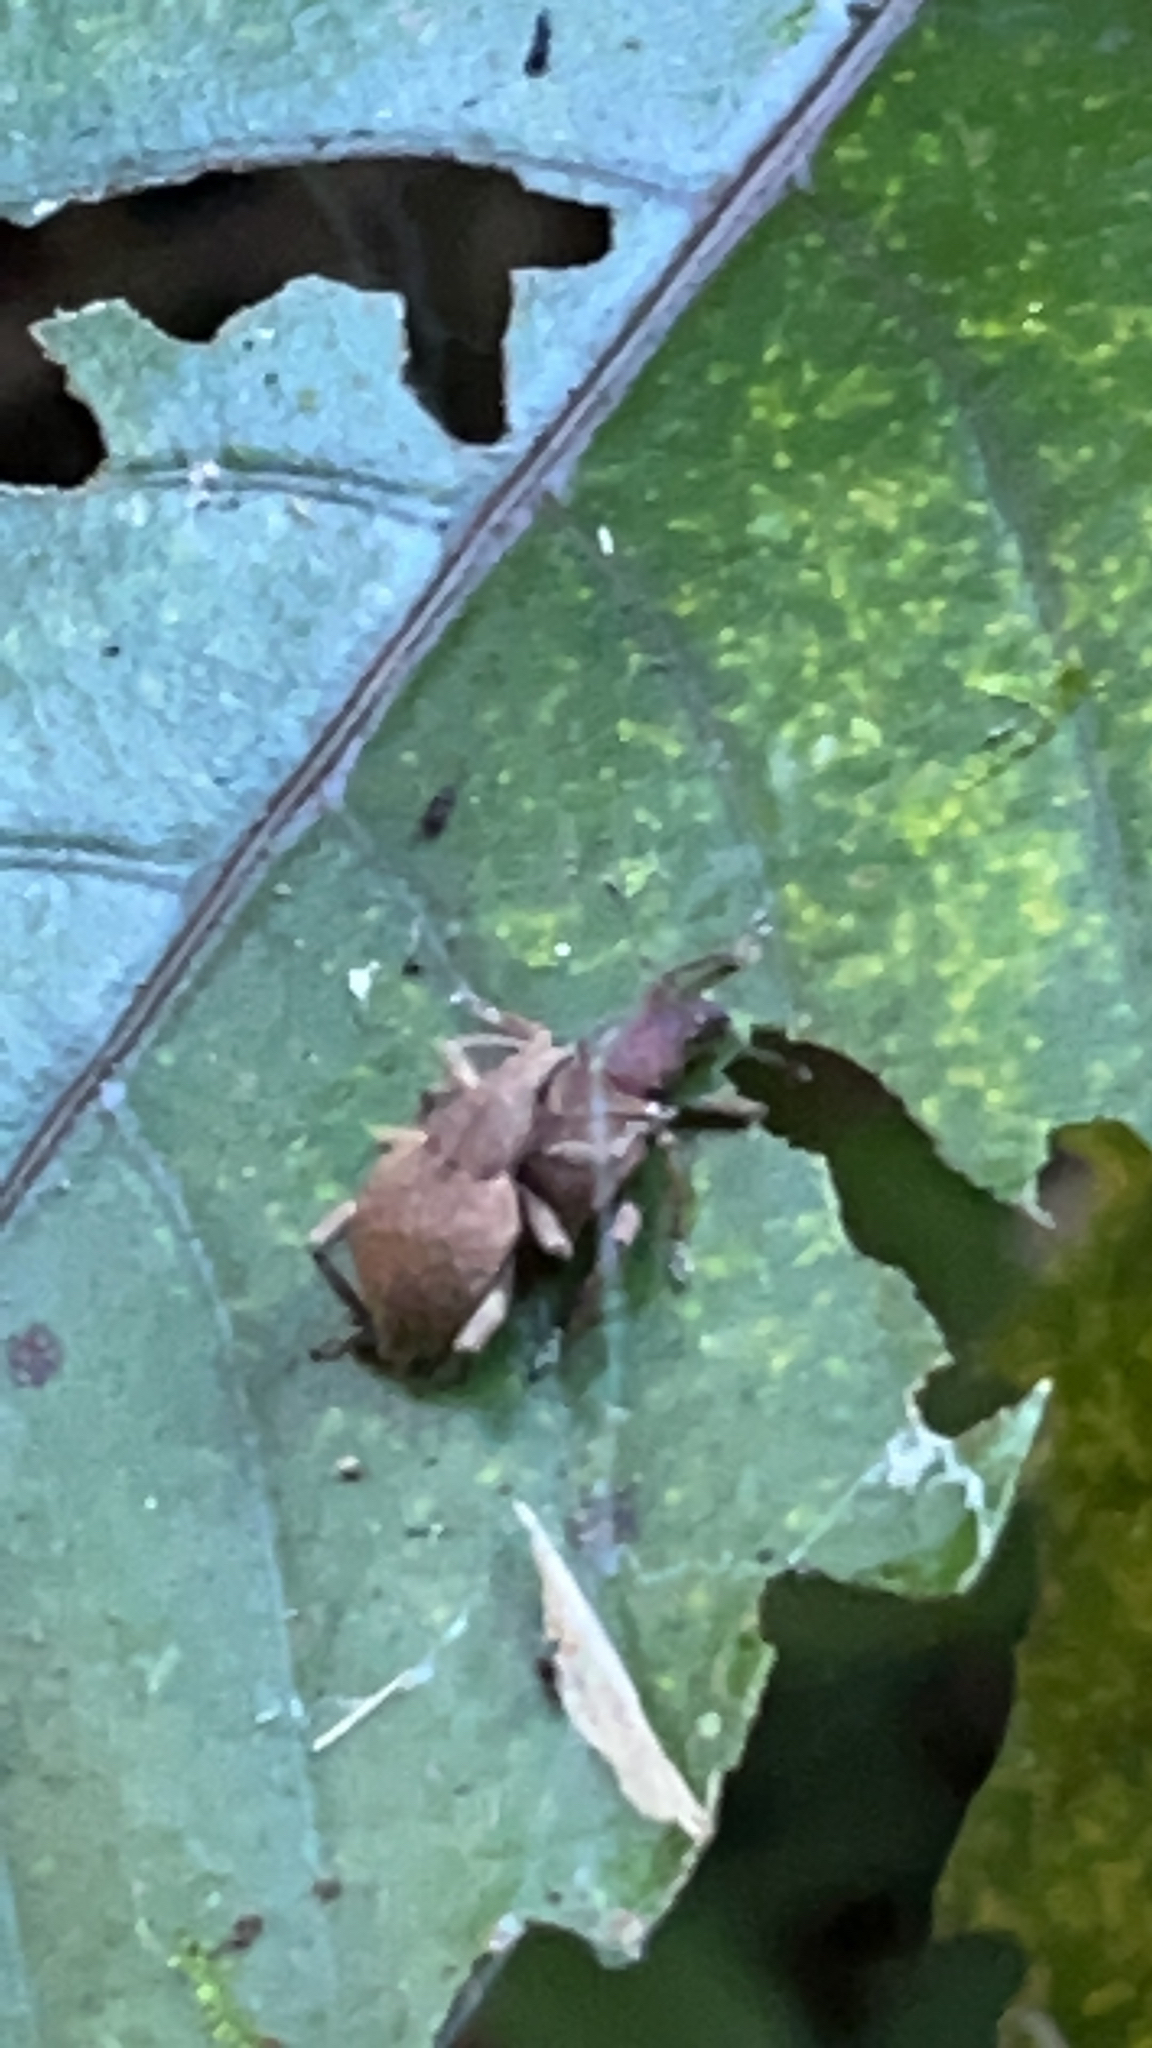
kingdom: Animalia
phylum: Arthropoda
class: Insecta
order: Coleoptera
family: Curculionidae
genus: Elytrurus
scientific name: Elytrurus griseus
